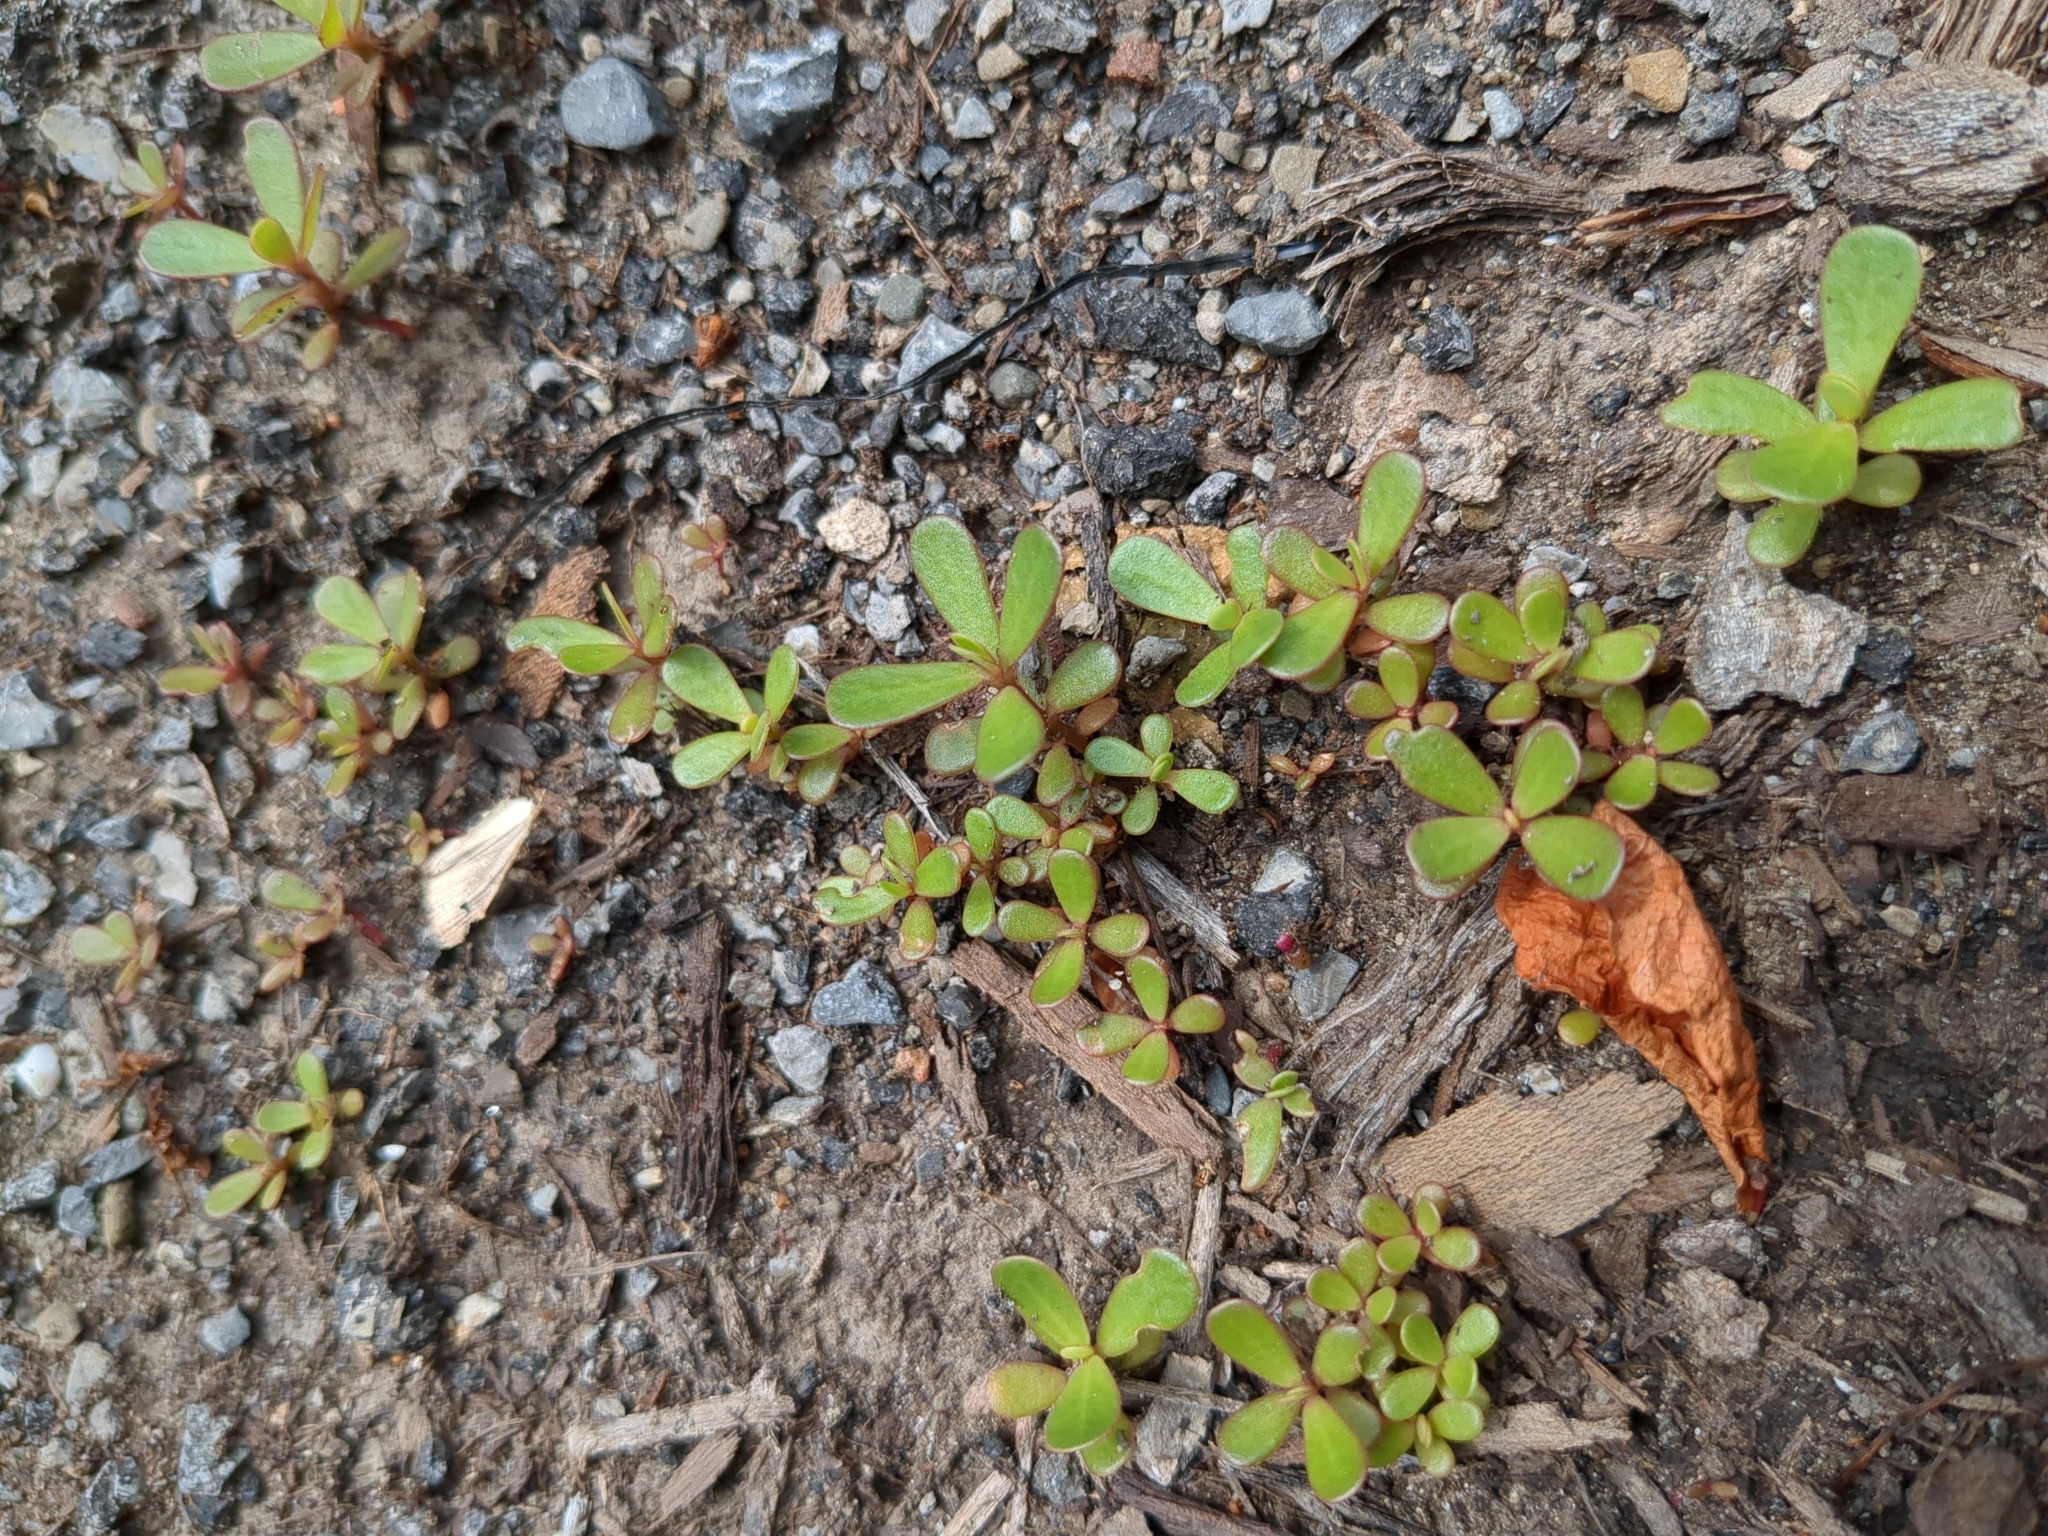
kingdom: Plantae
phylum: Tracheophyta
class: Magnoliopsida
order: Caryophyllales
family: Portulacaceae
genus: Portulaca
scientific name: Portulaca oleracea
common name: Common purslane
